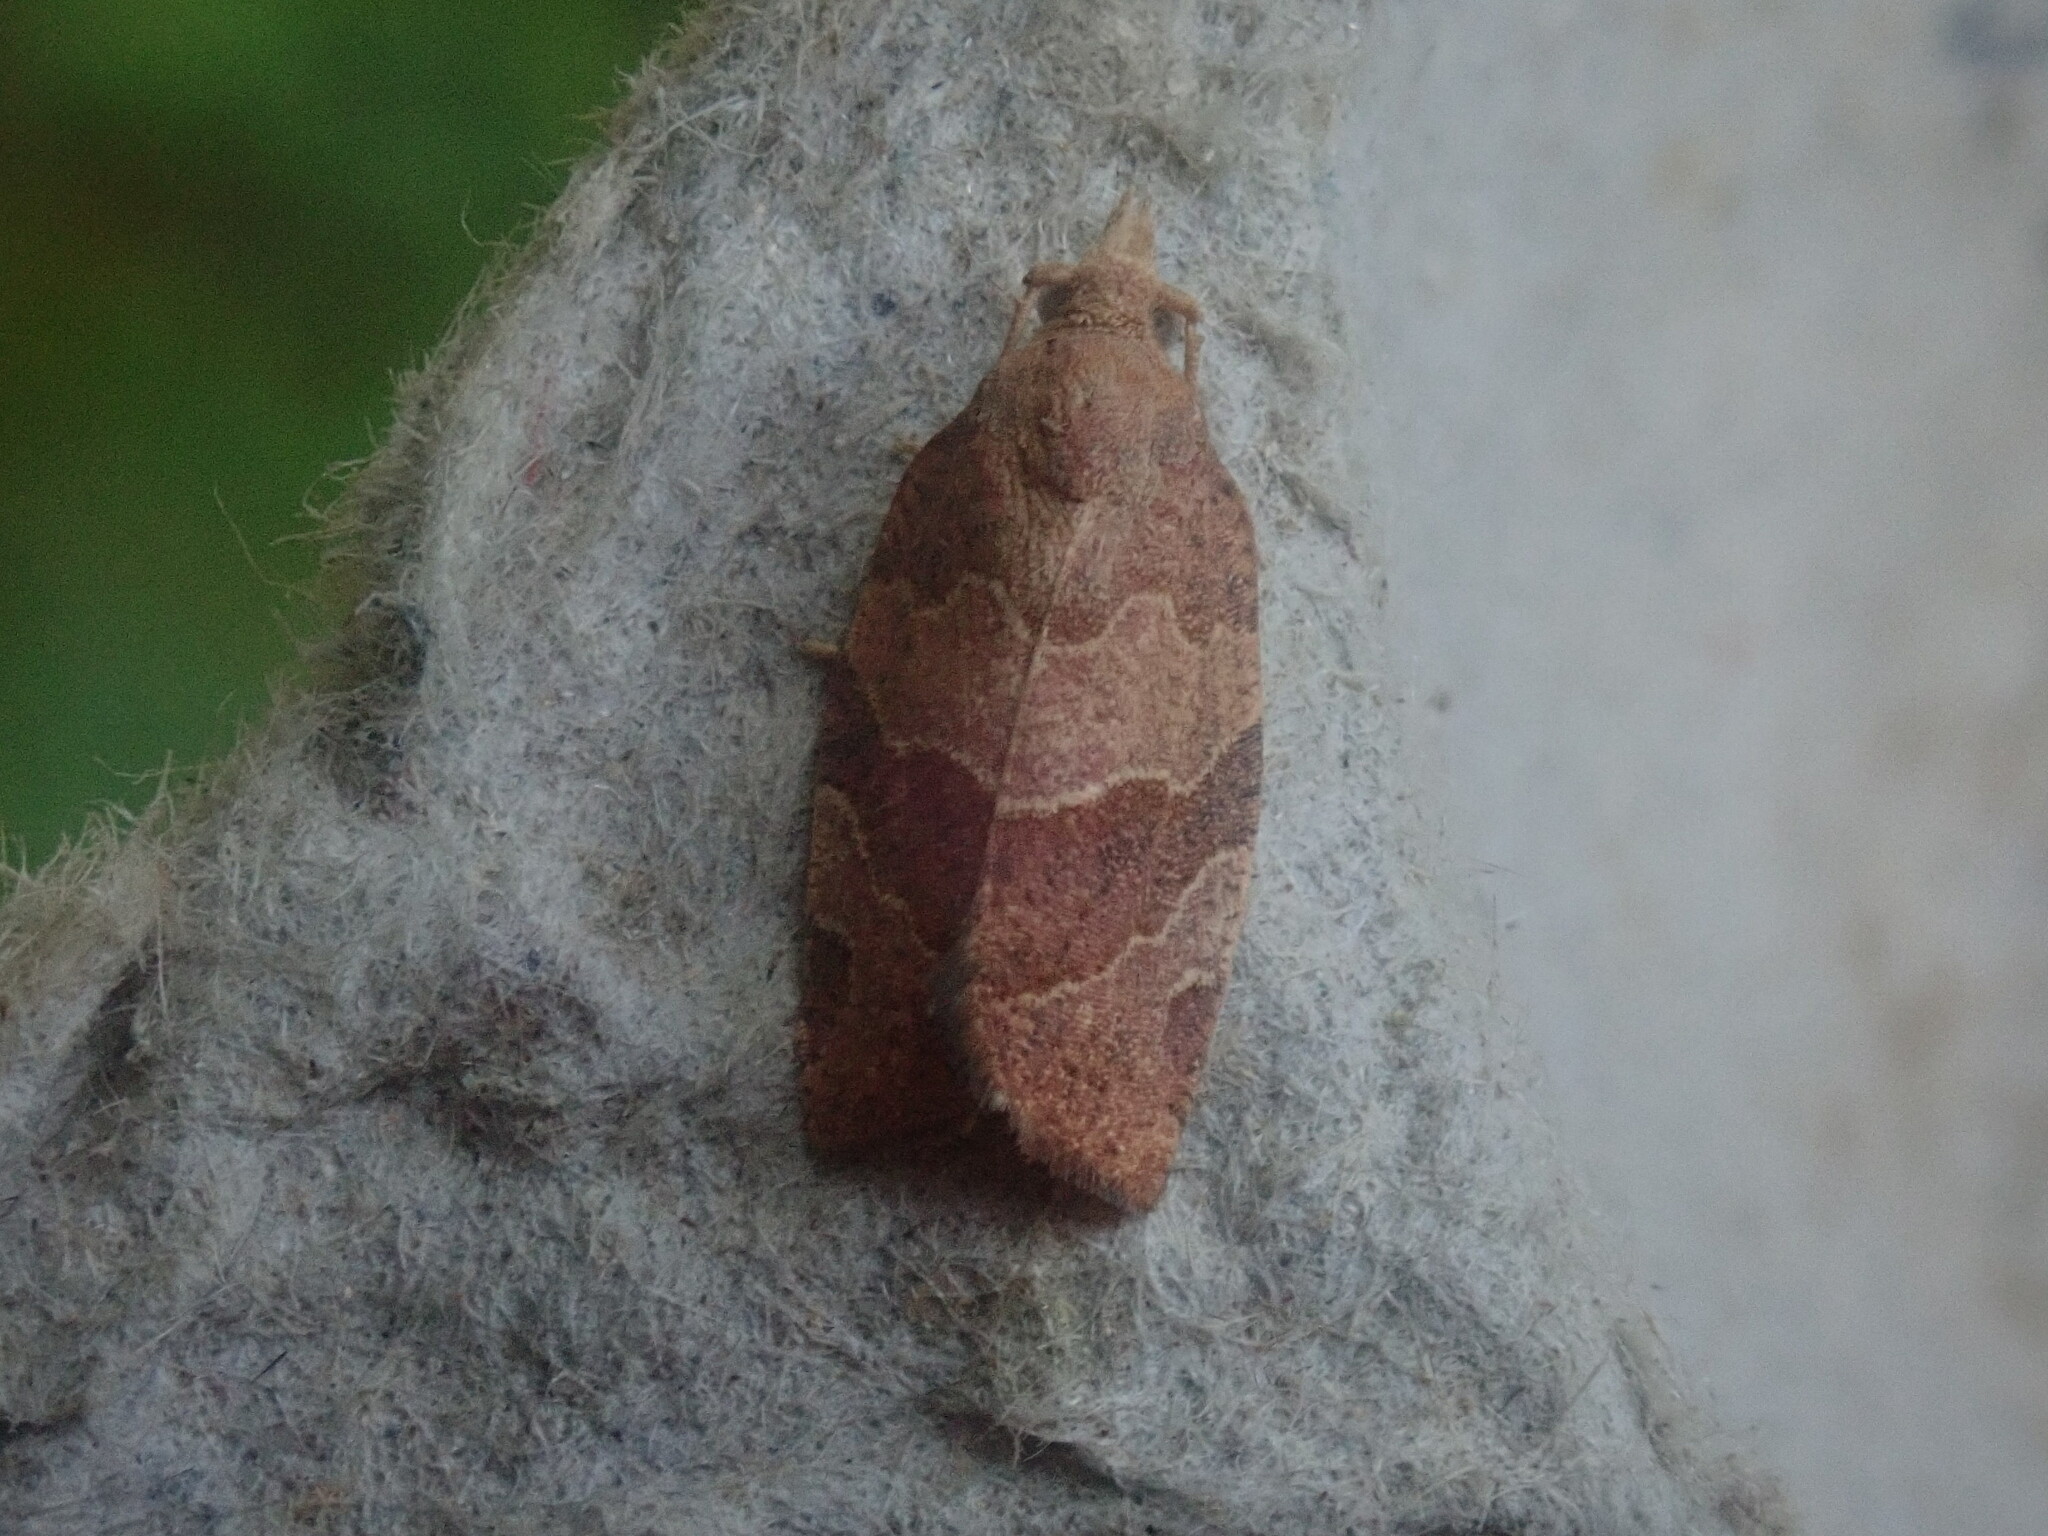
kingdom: Animalia
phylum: Arthropoda
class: Insecta
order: Lepidoptera
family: Tortricidae
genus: Pandemis
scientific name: Pandemis limitata
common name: Three-lined leafroller moth
